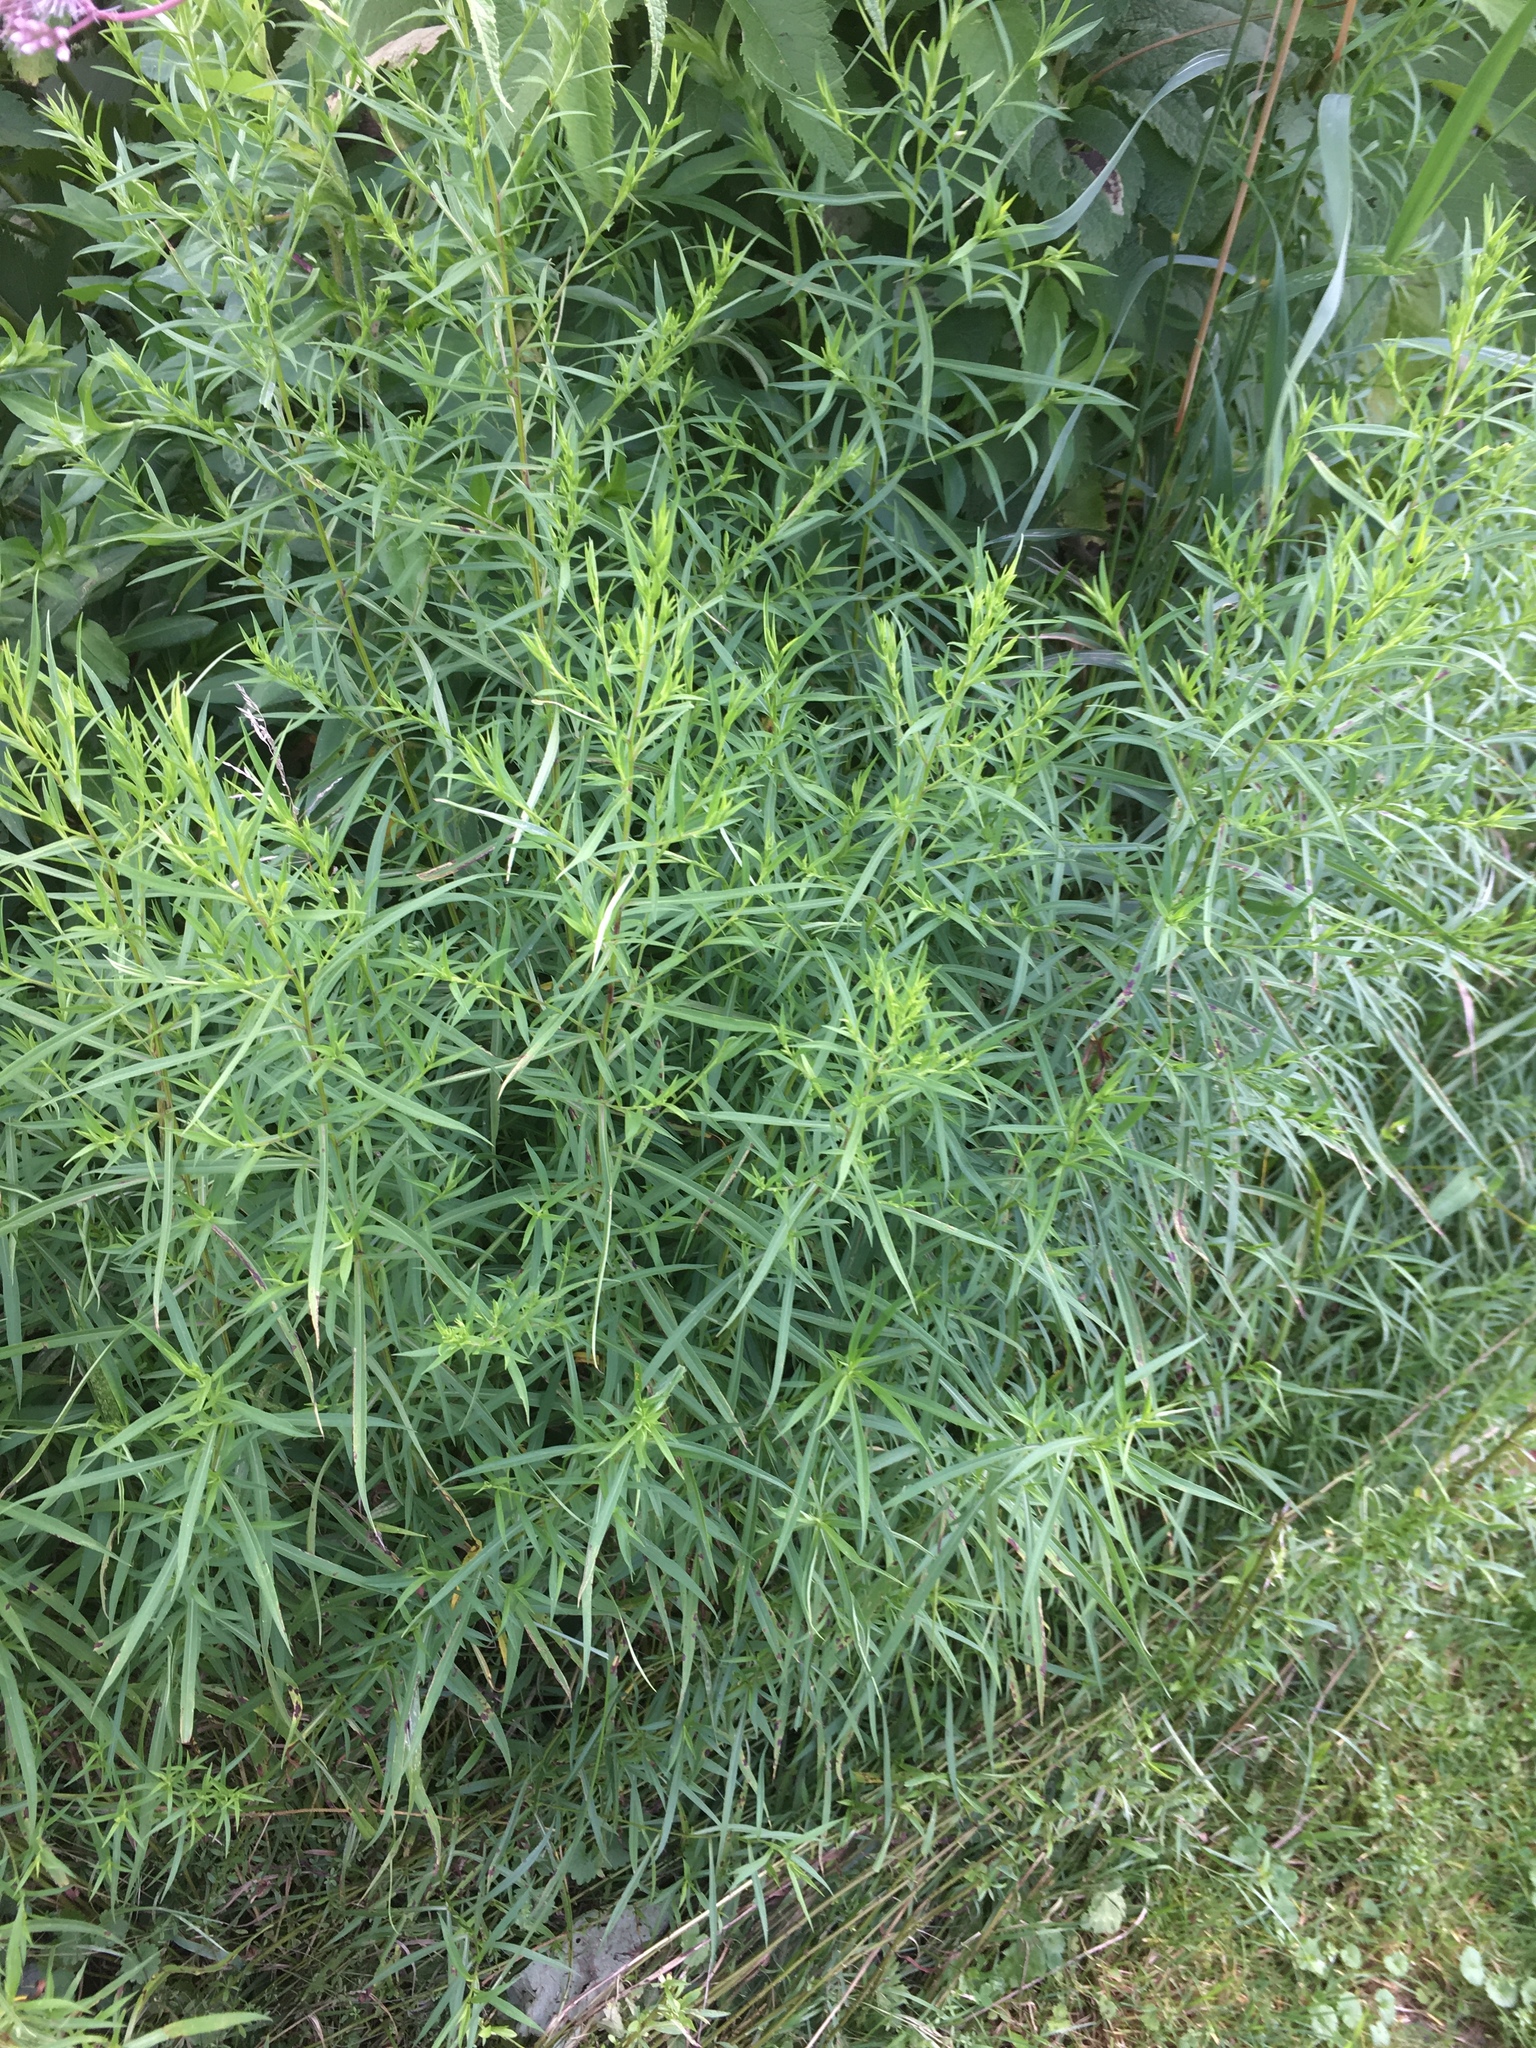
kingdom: Plantae
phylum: Tracheophyta
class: Magnoliopsida
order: Asterales
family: Asteraceae
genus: Euthamia
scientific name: Euthamia graminifolia
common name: Common goldentop
